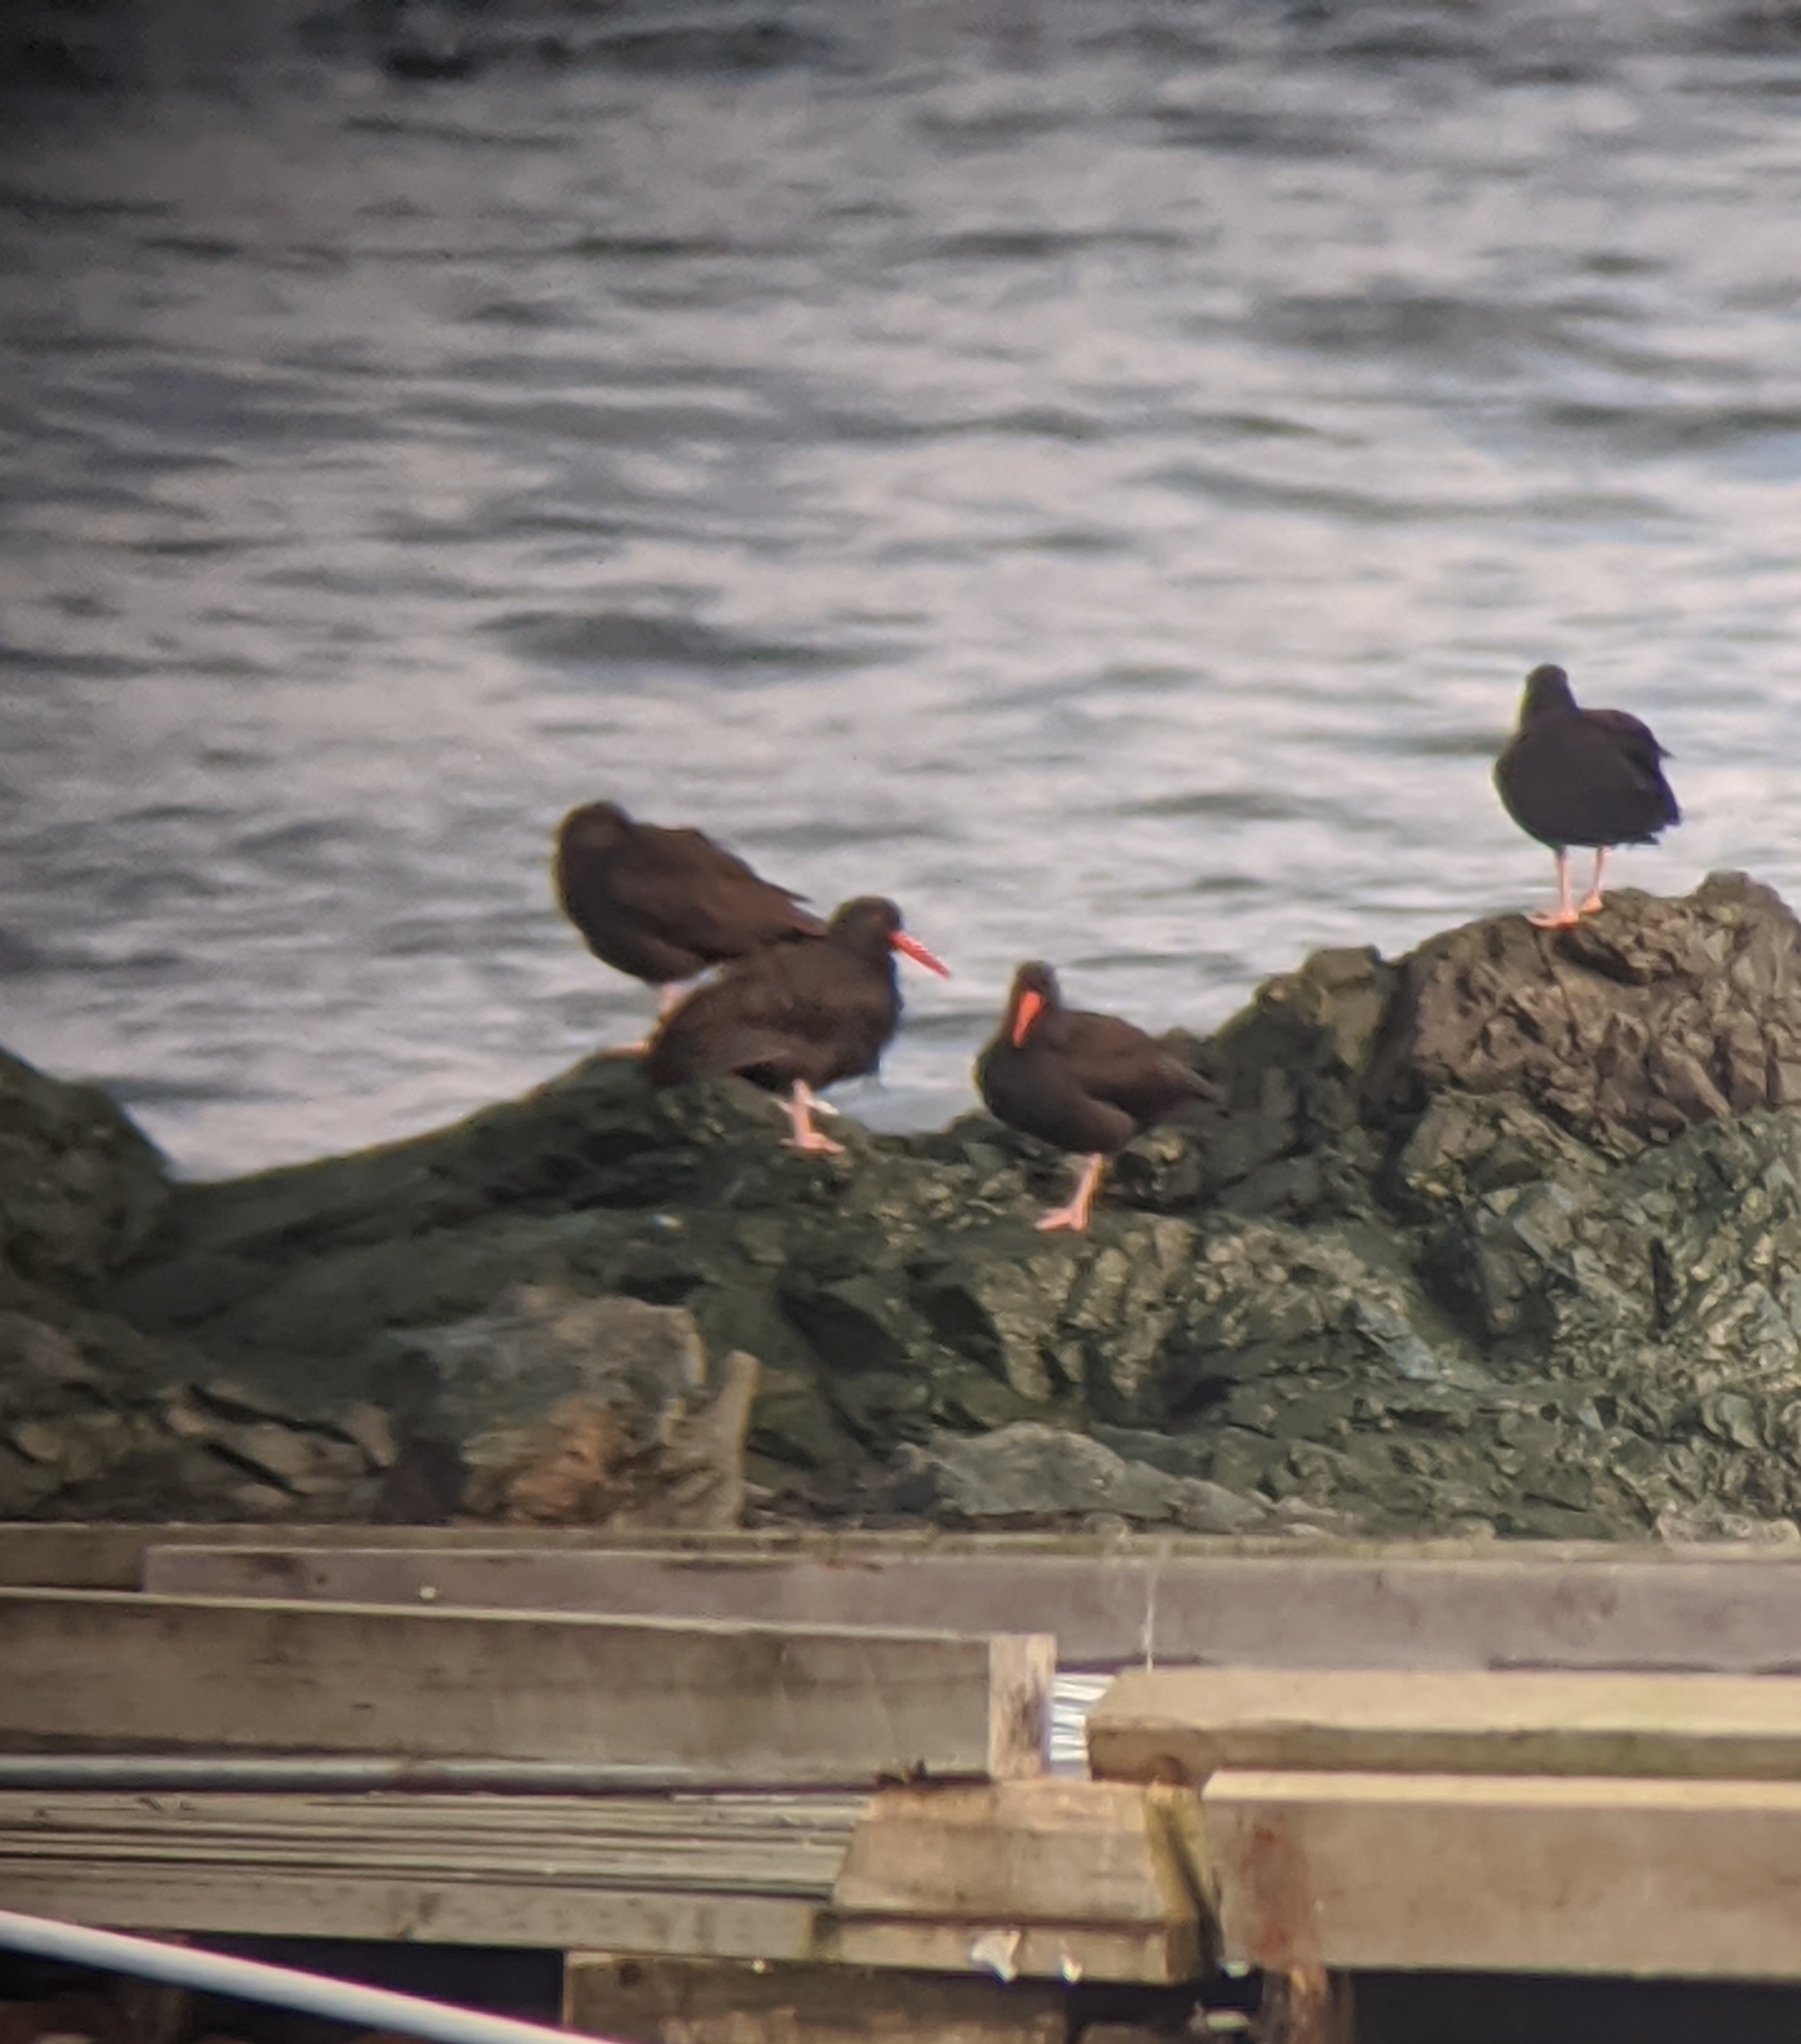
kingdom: Animalia
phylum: Chordata
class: Aves
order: Charadriiformes
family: Haematopodidae
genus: Haematopus
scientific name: Haematopus bachmani
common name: Black oystercatcher
